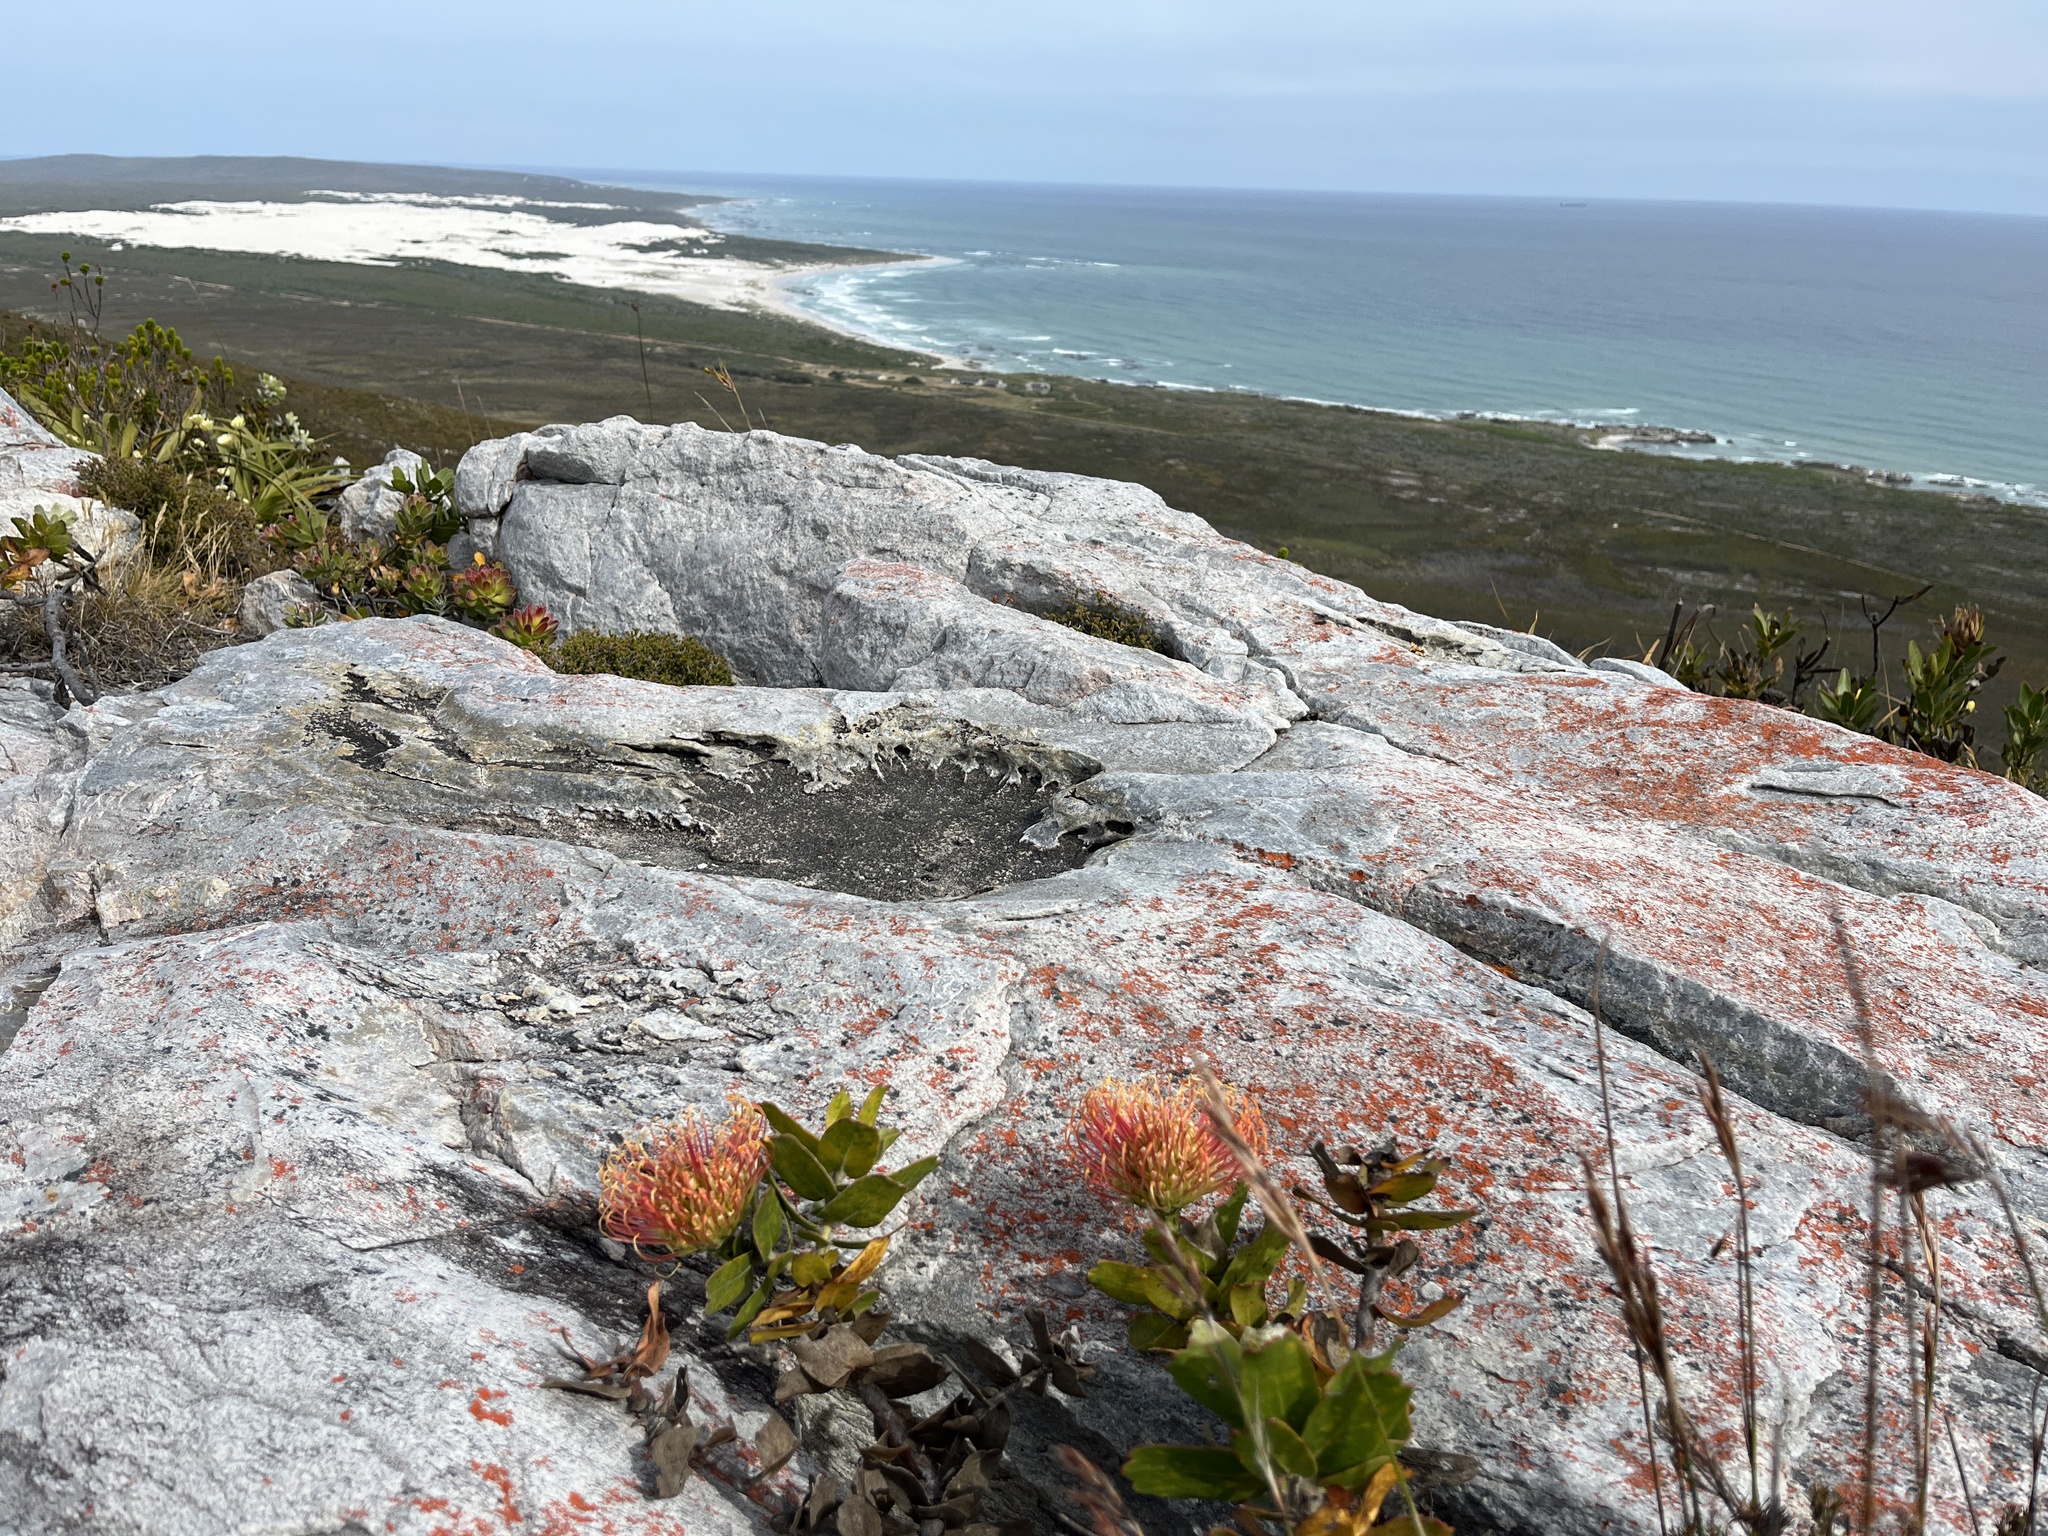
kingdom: Plantae
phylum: Tracheophyta
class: Magnoliopsida
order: Proteales
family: Proteaceae
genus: Leucospermum
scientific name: Leucospermum patersonii
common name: False tree pincushion
